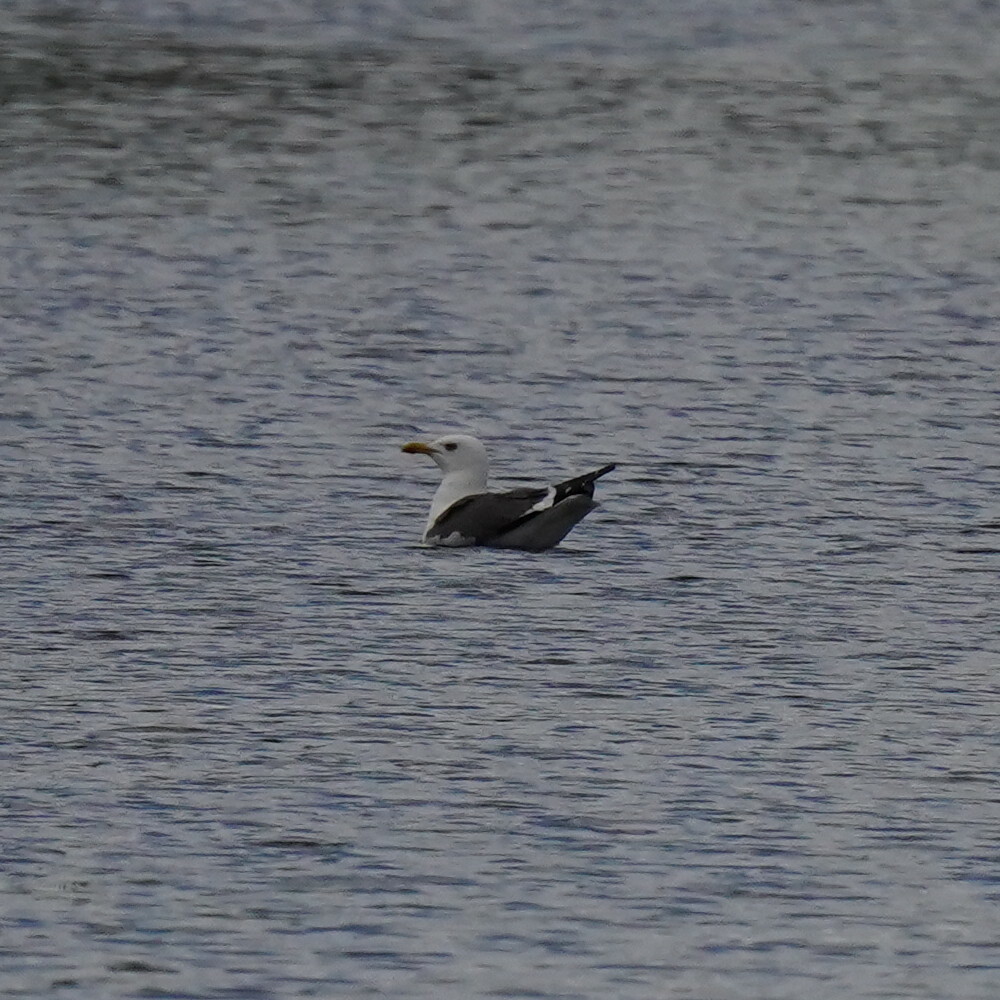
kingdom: Animalia
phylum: Chordata
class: Aves
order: Charadriiformes
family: Laridae
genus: Larus
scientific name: Larus fuscus
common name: Lesser black-backed gull
